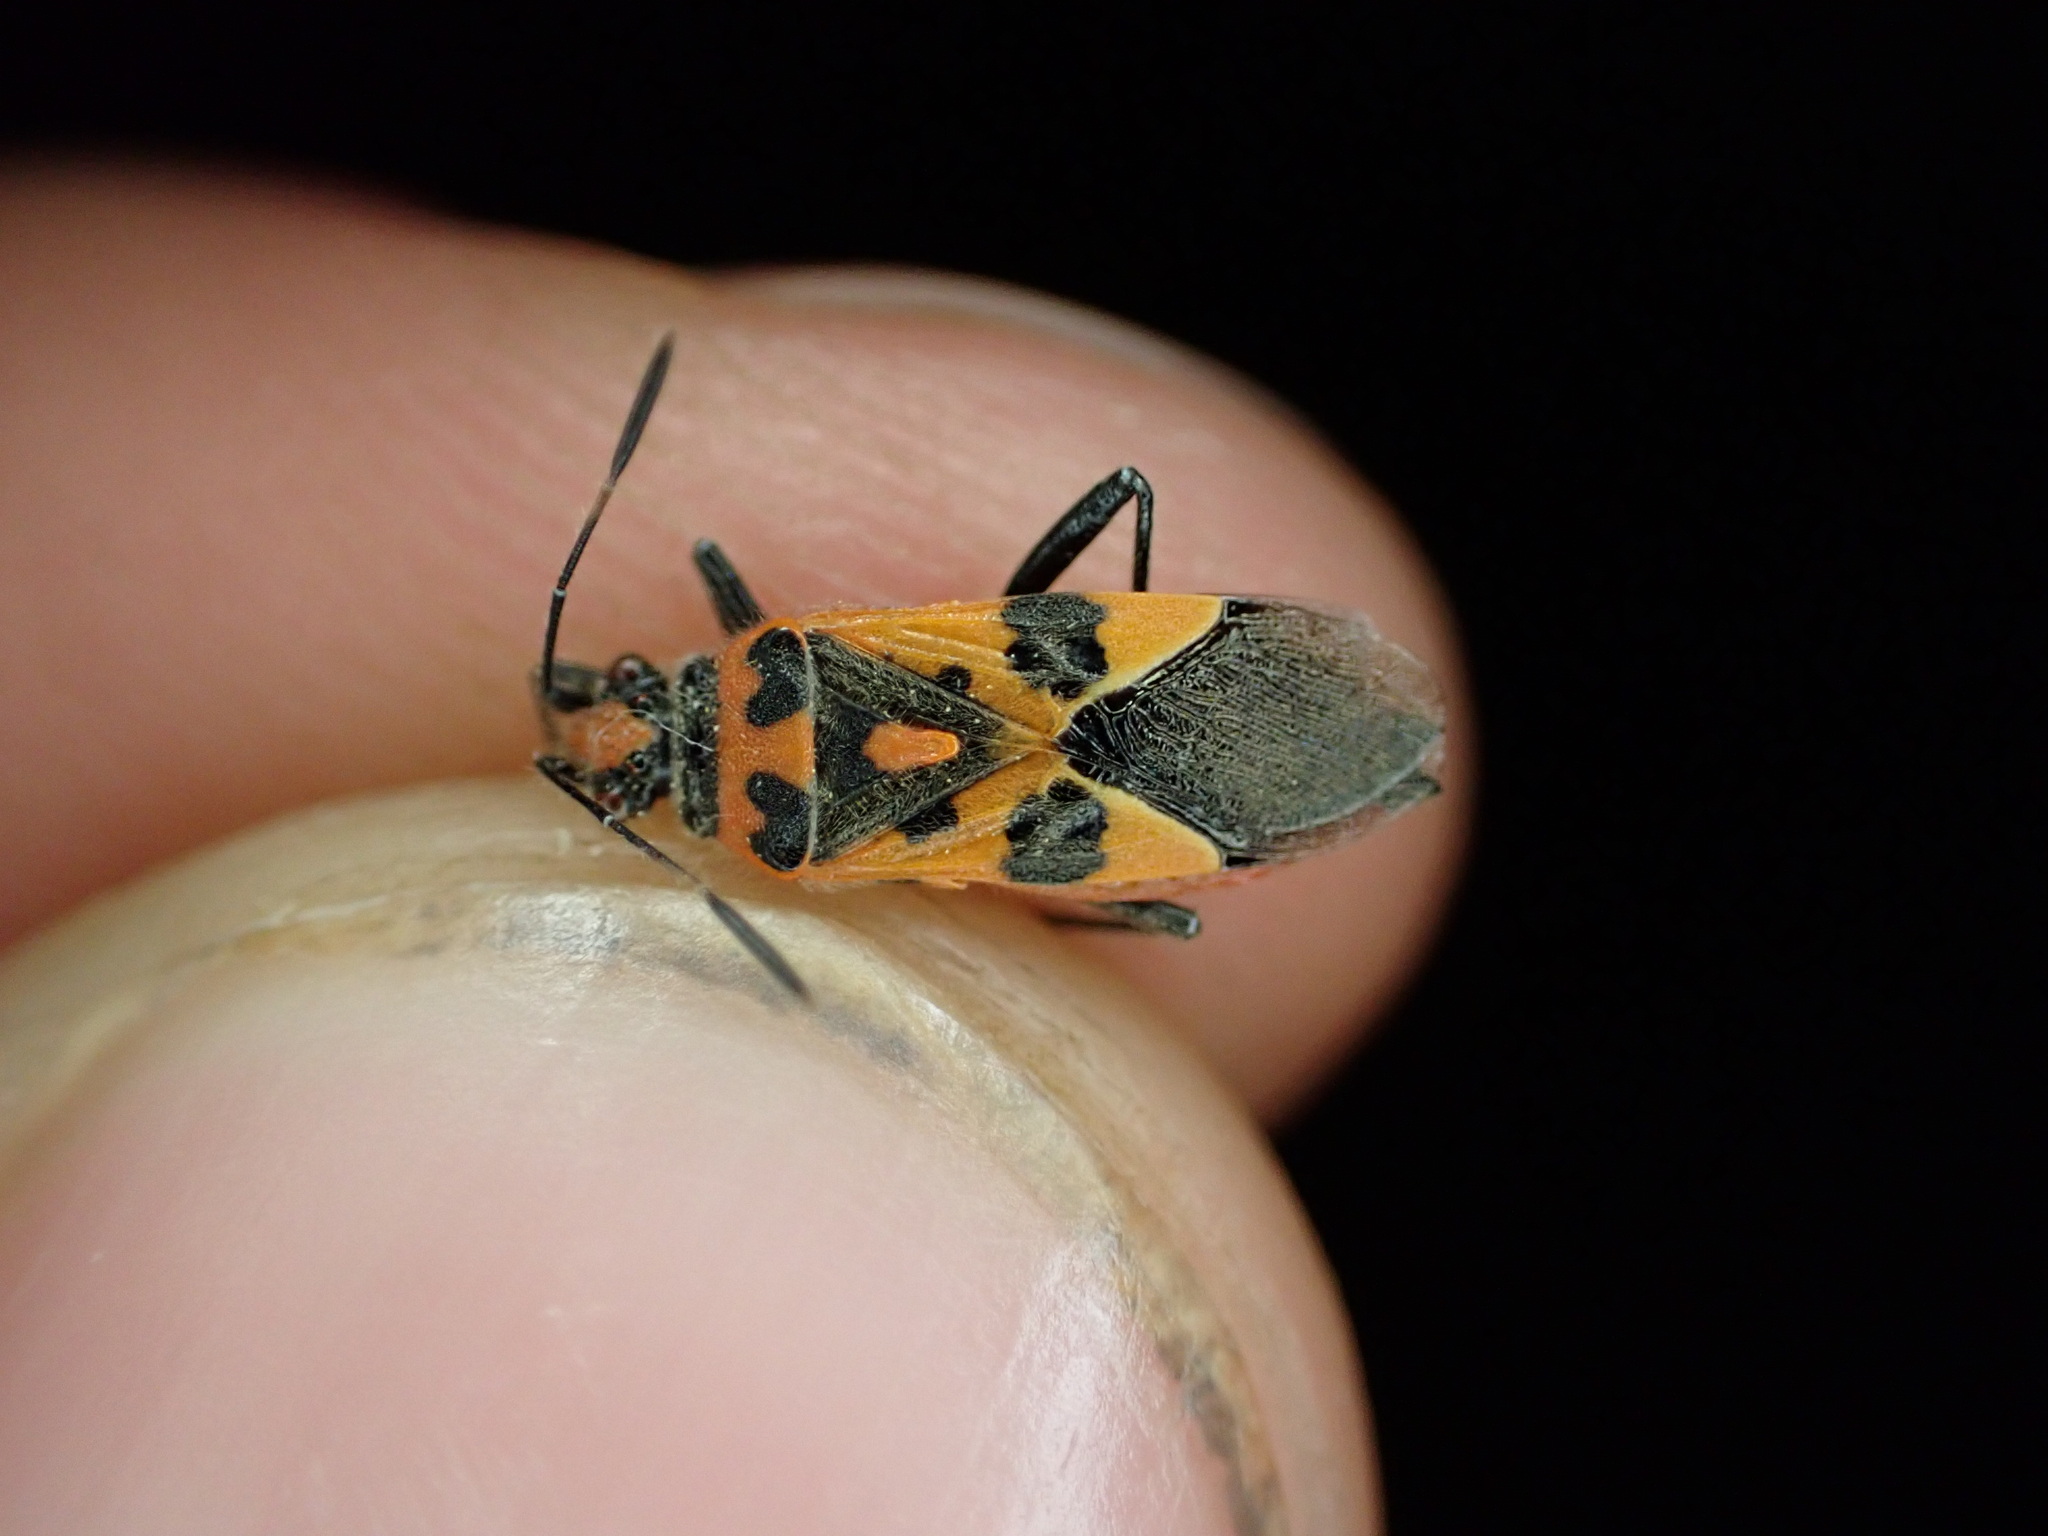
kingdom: Animalia
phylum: Arthropoda
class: Insecta
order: Hemiptera
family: Rhopalidae
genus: Corizus
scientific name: Corizus hyoscyami
